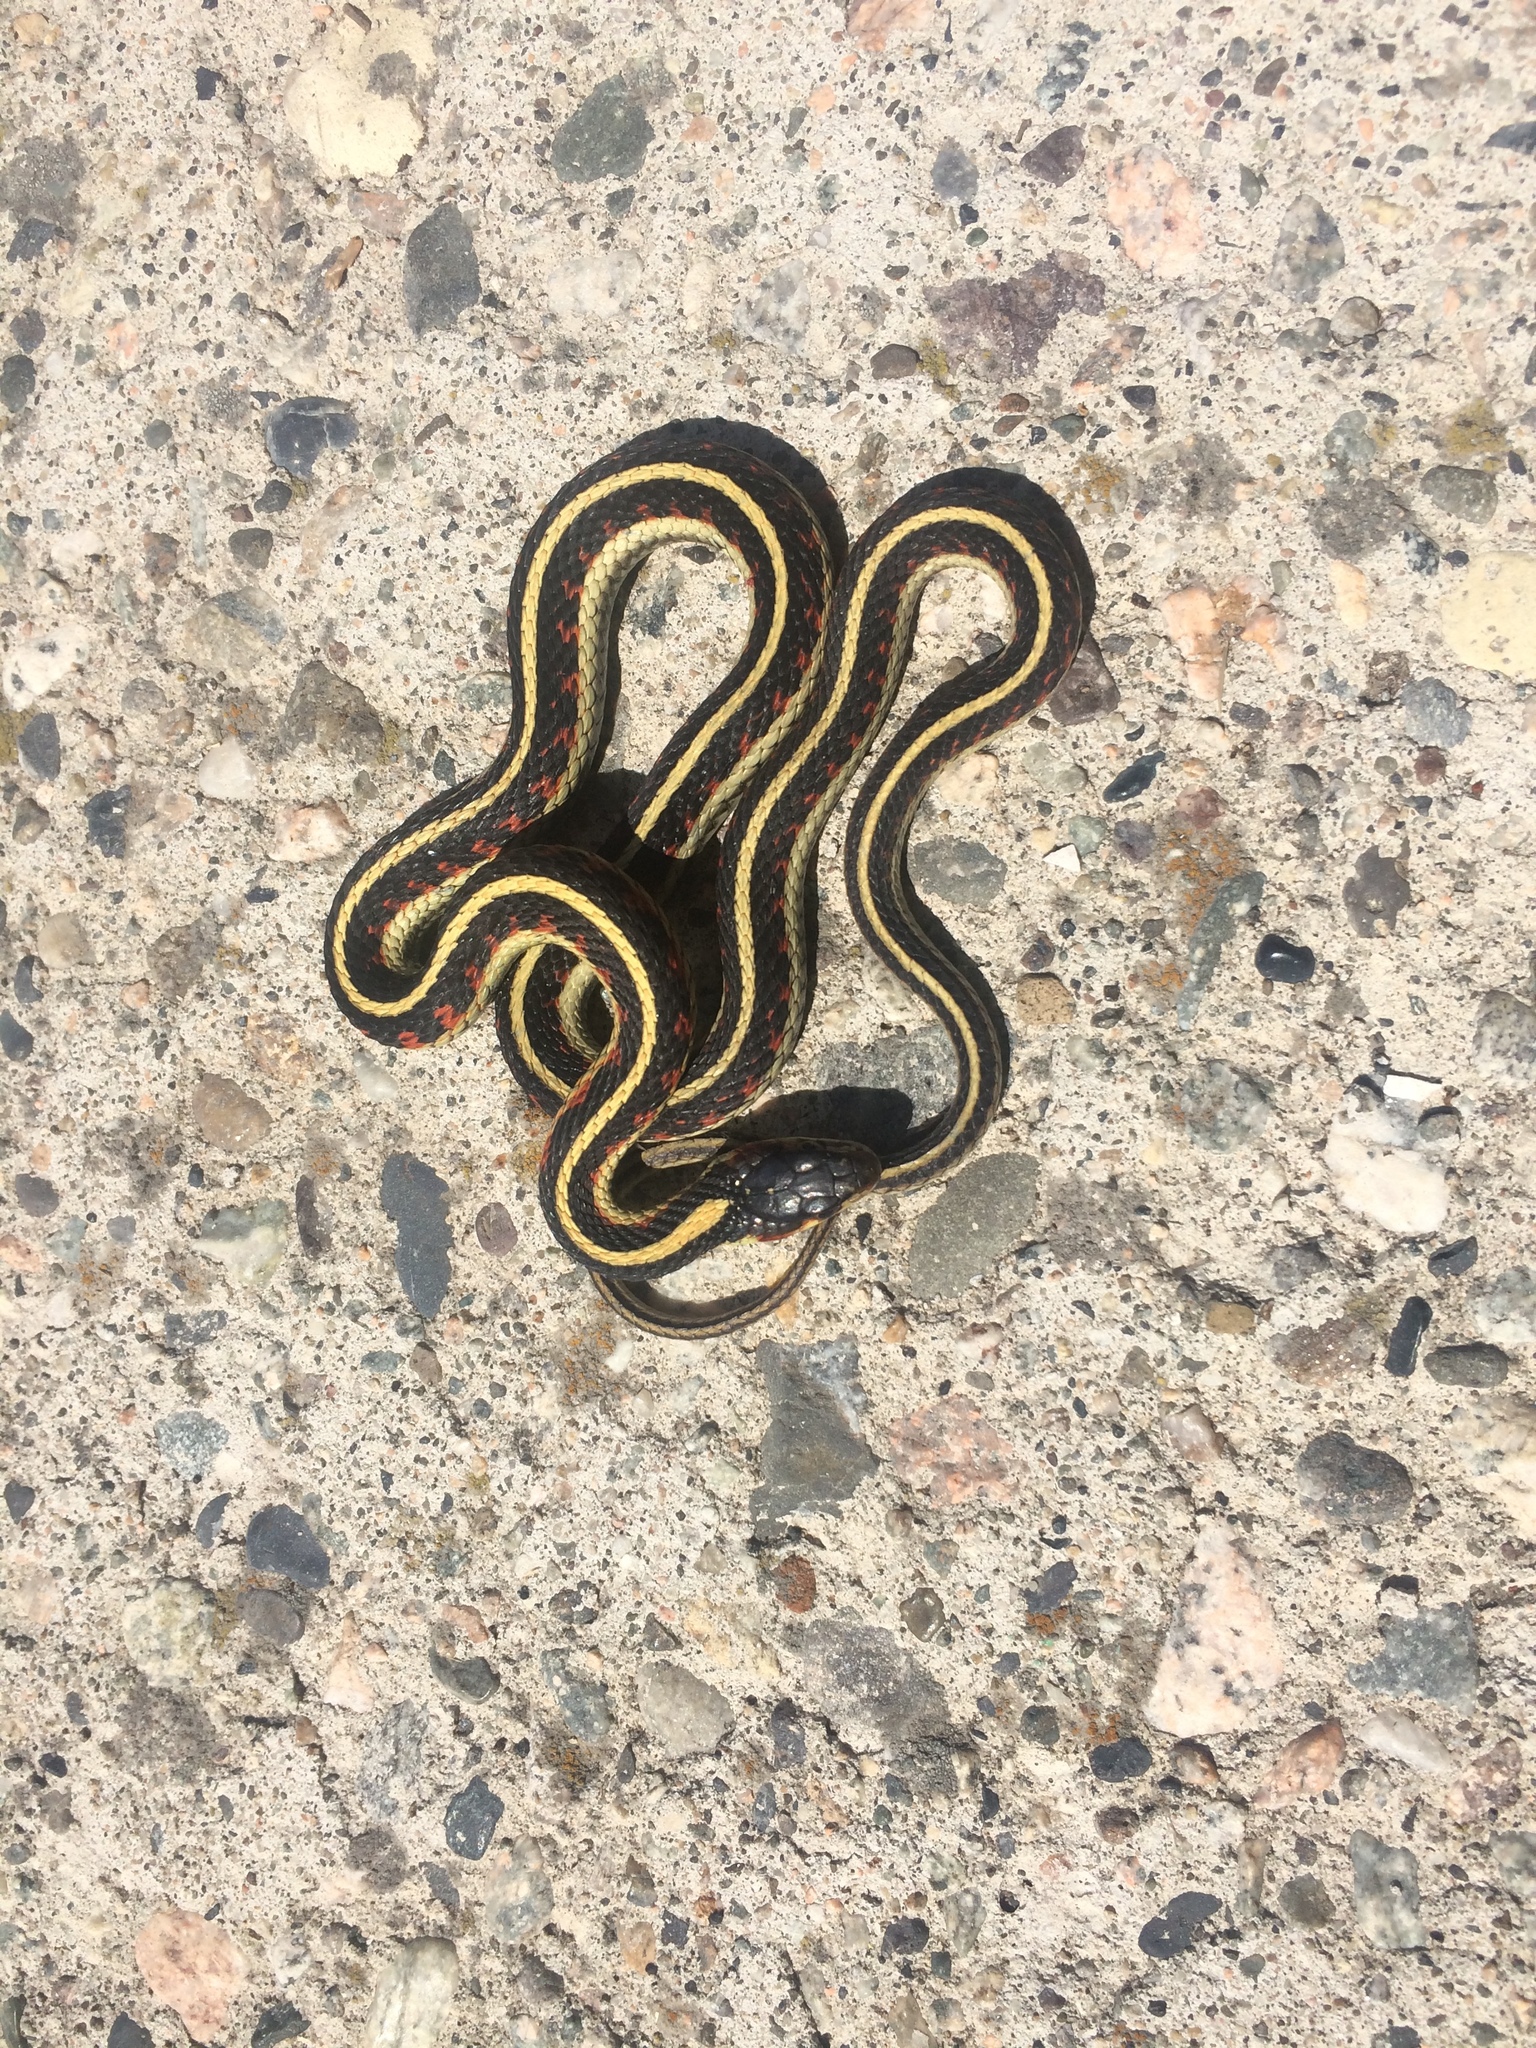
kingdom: Animalia
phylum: Chordata
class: Squamata
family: Colubridae
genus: Thamnophis
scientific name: Thamnophis sirtalis
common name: Common garter snake
